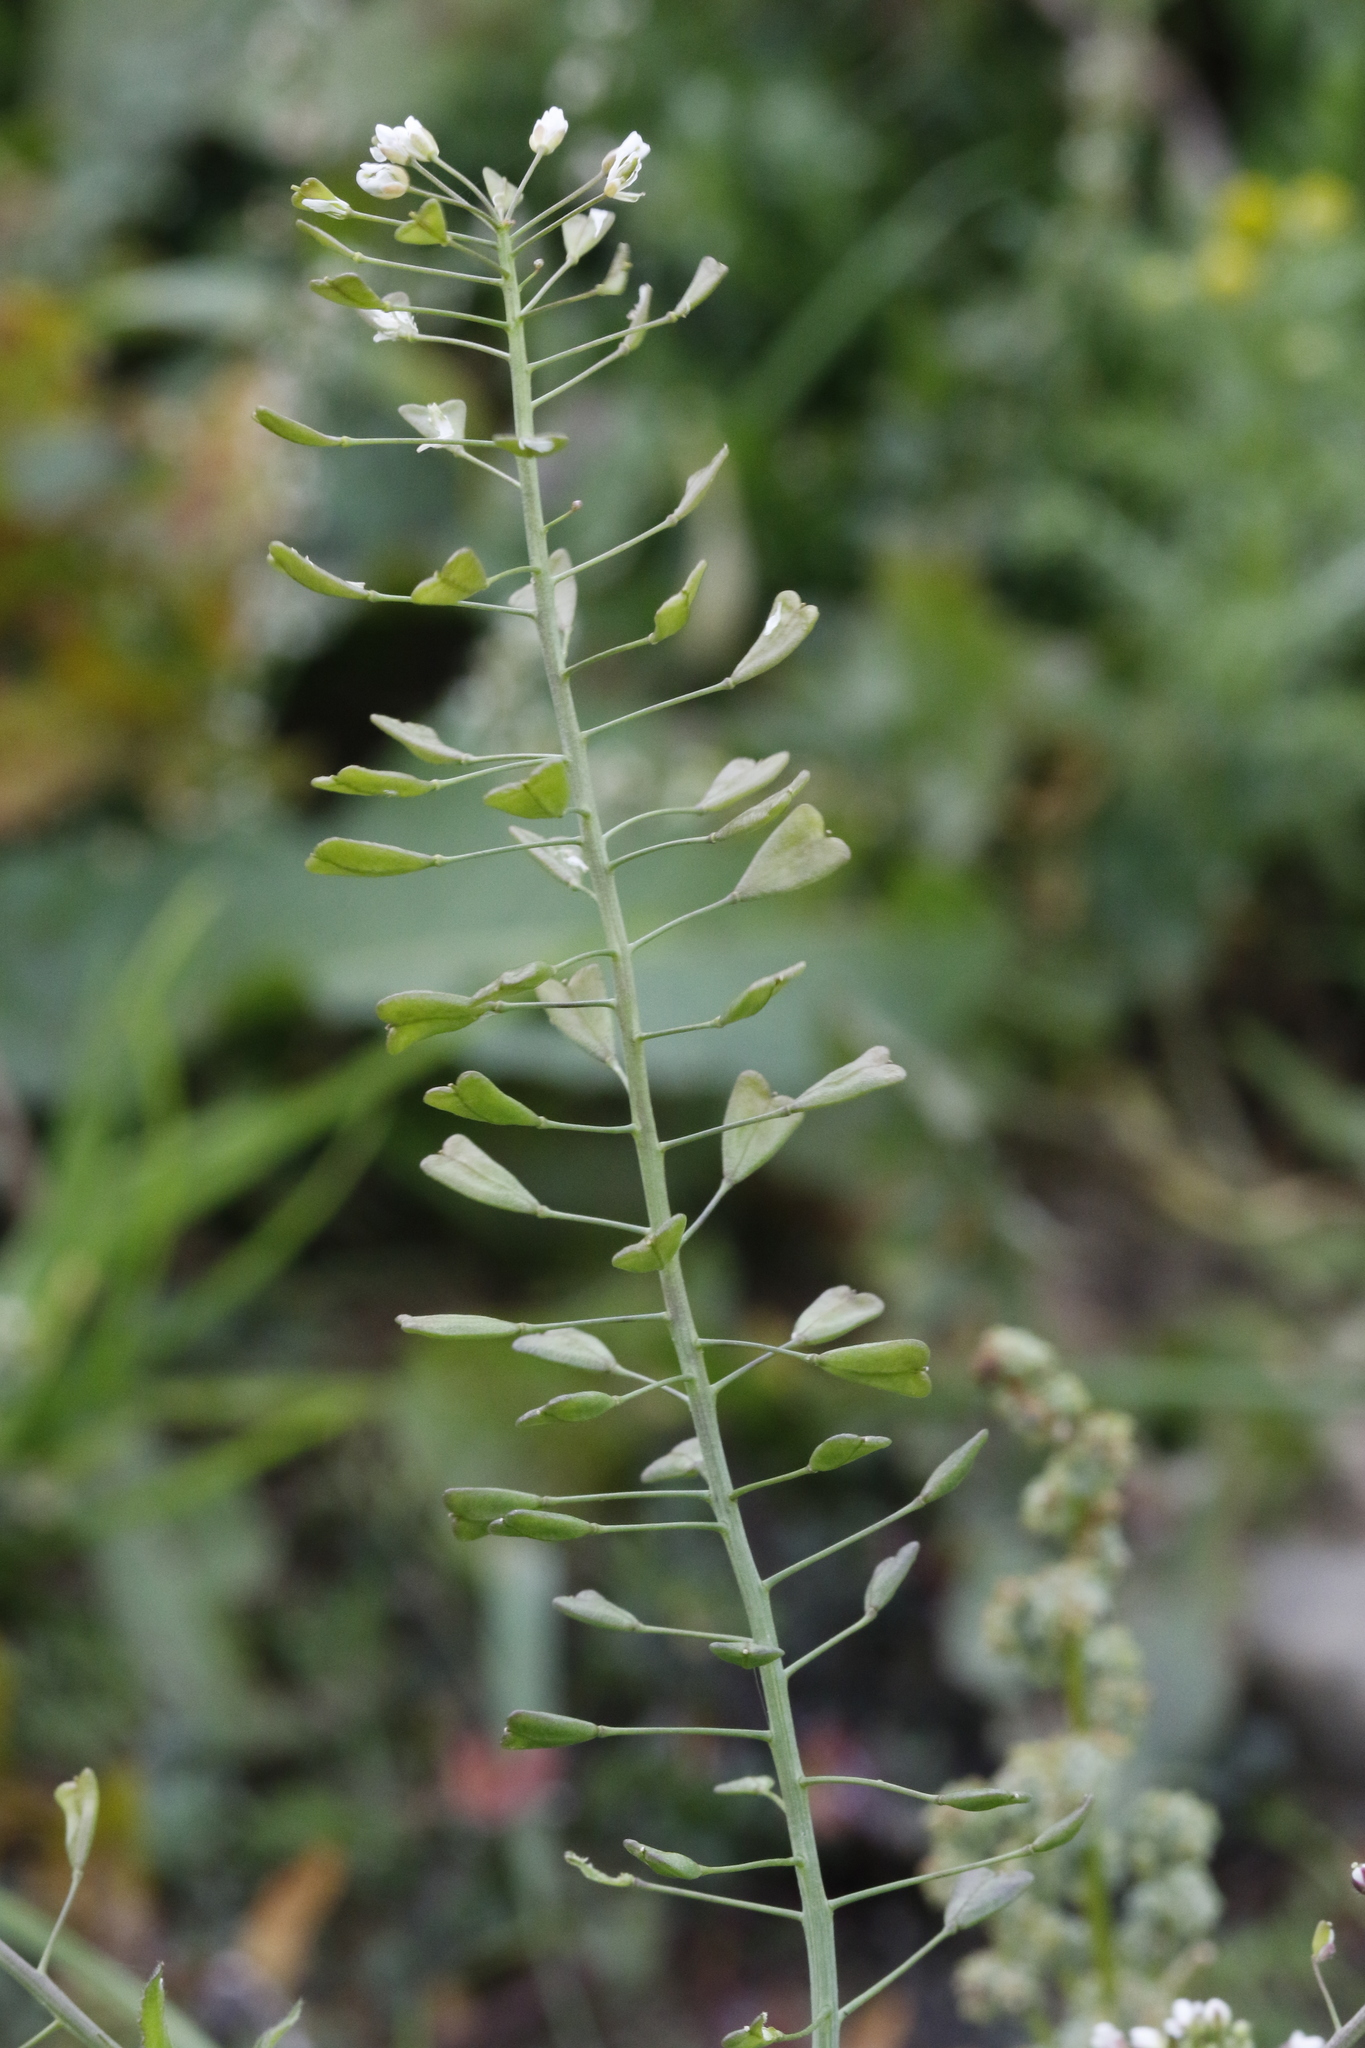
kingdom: Plantae
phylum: Tracheophyta
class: Magnoliopsida
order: Brassicales
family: Brassicaceae
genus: Capsella
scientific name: Capsella bursa-pastoris
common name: Shepherd's purse
